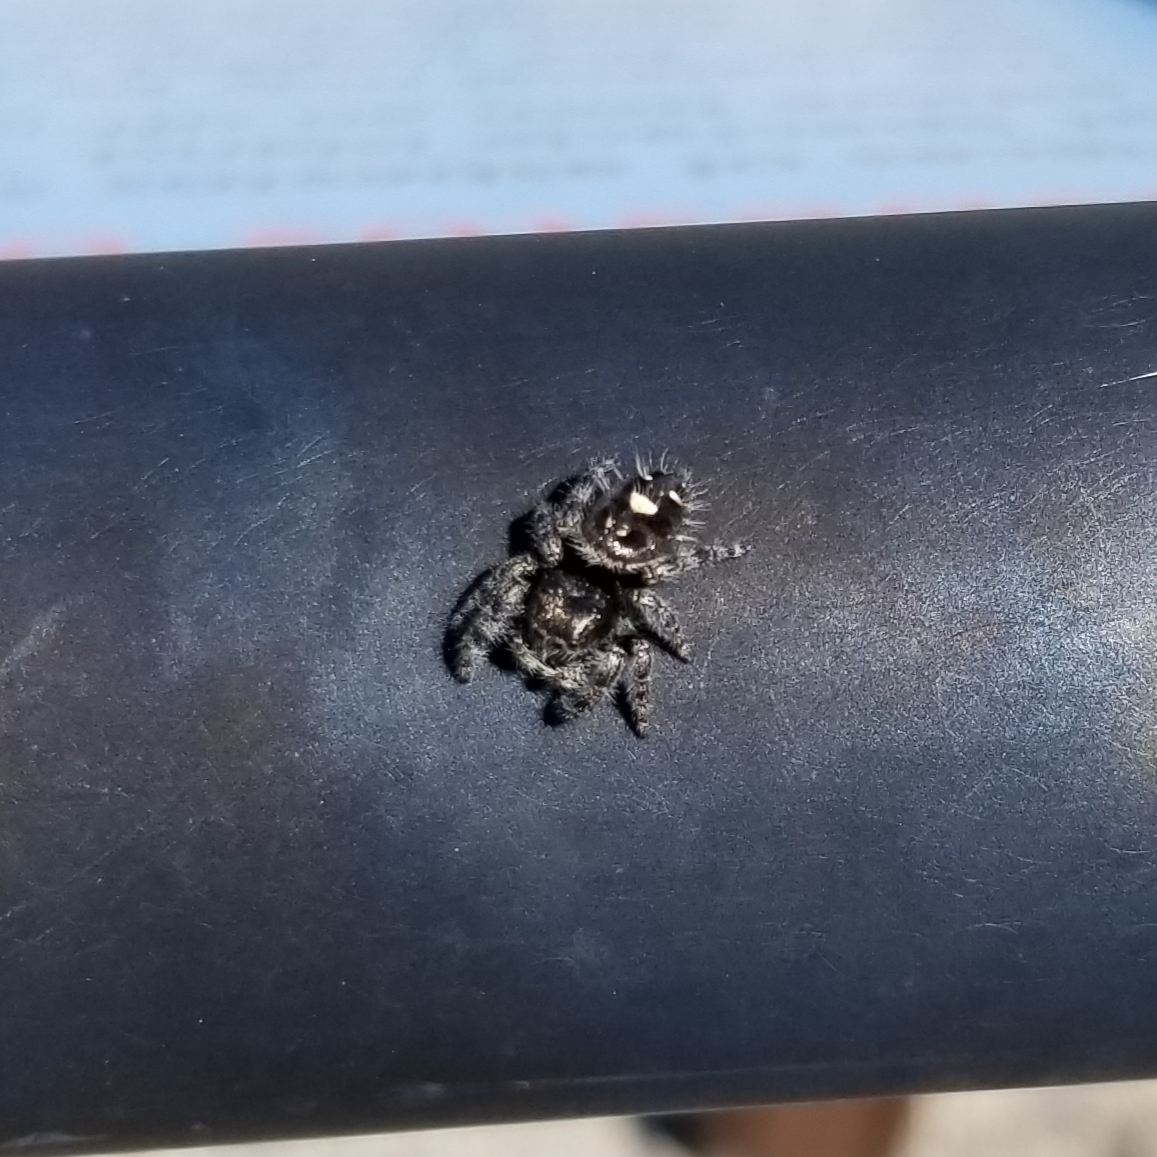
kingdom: Animalia
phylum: Arthropoda
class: Arachnida
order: Araneae
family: Salticidae
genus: Phidippus
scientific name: Phidippus audax
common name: Bold jumper
